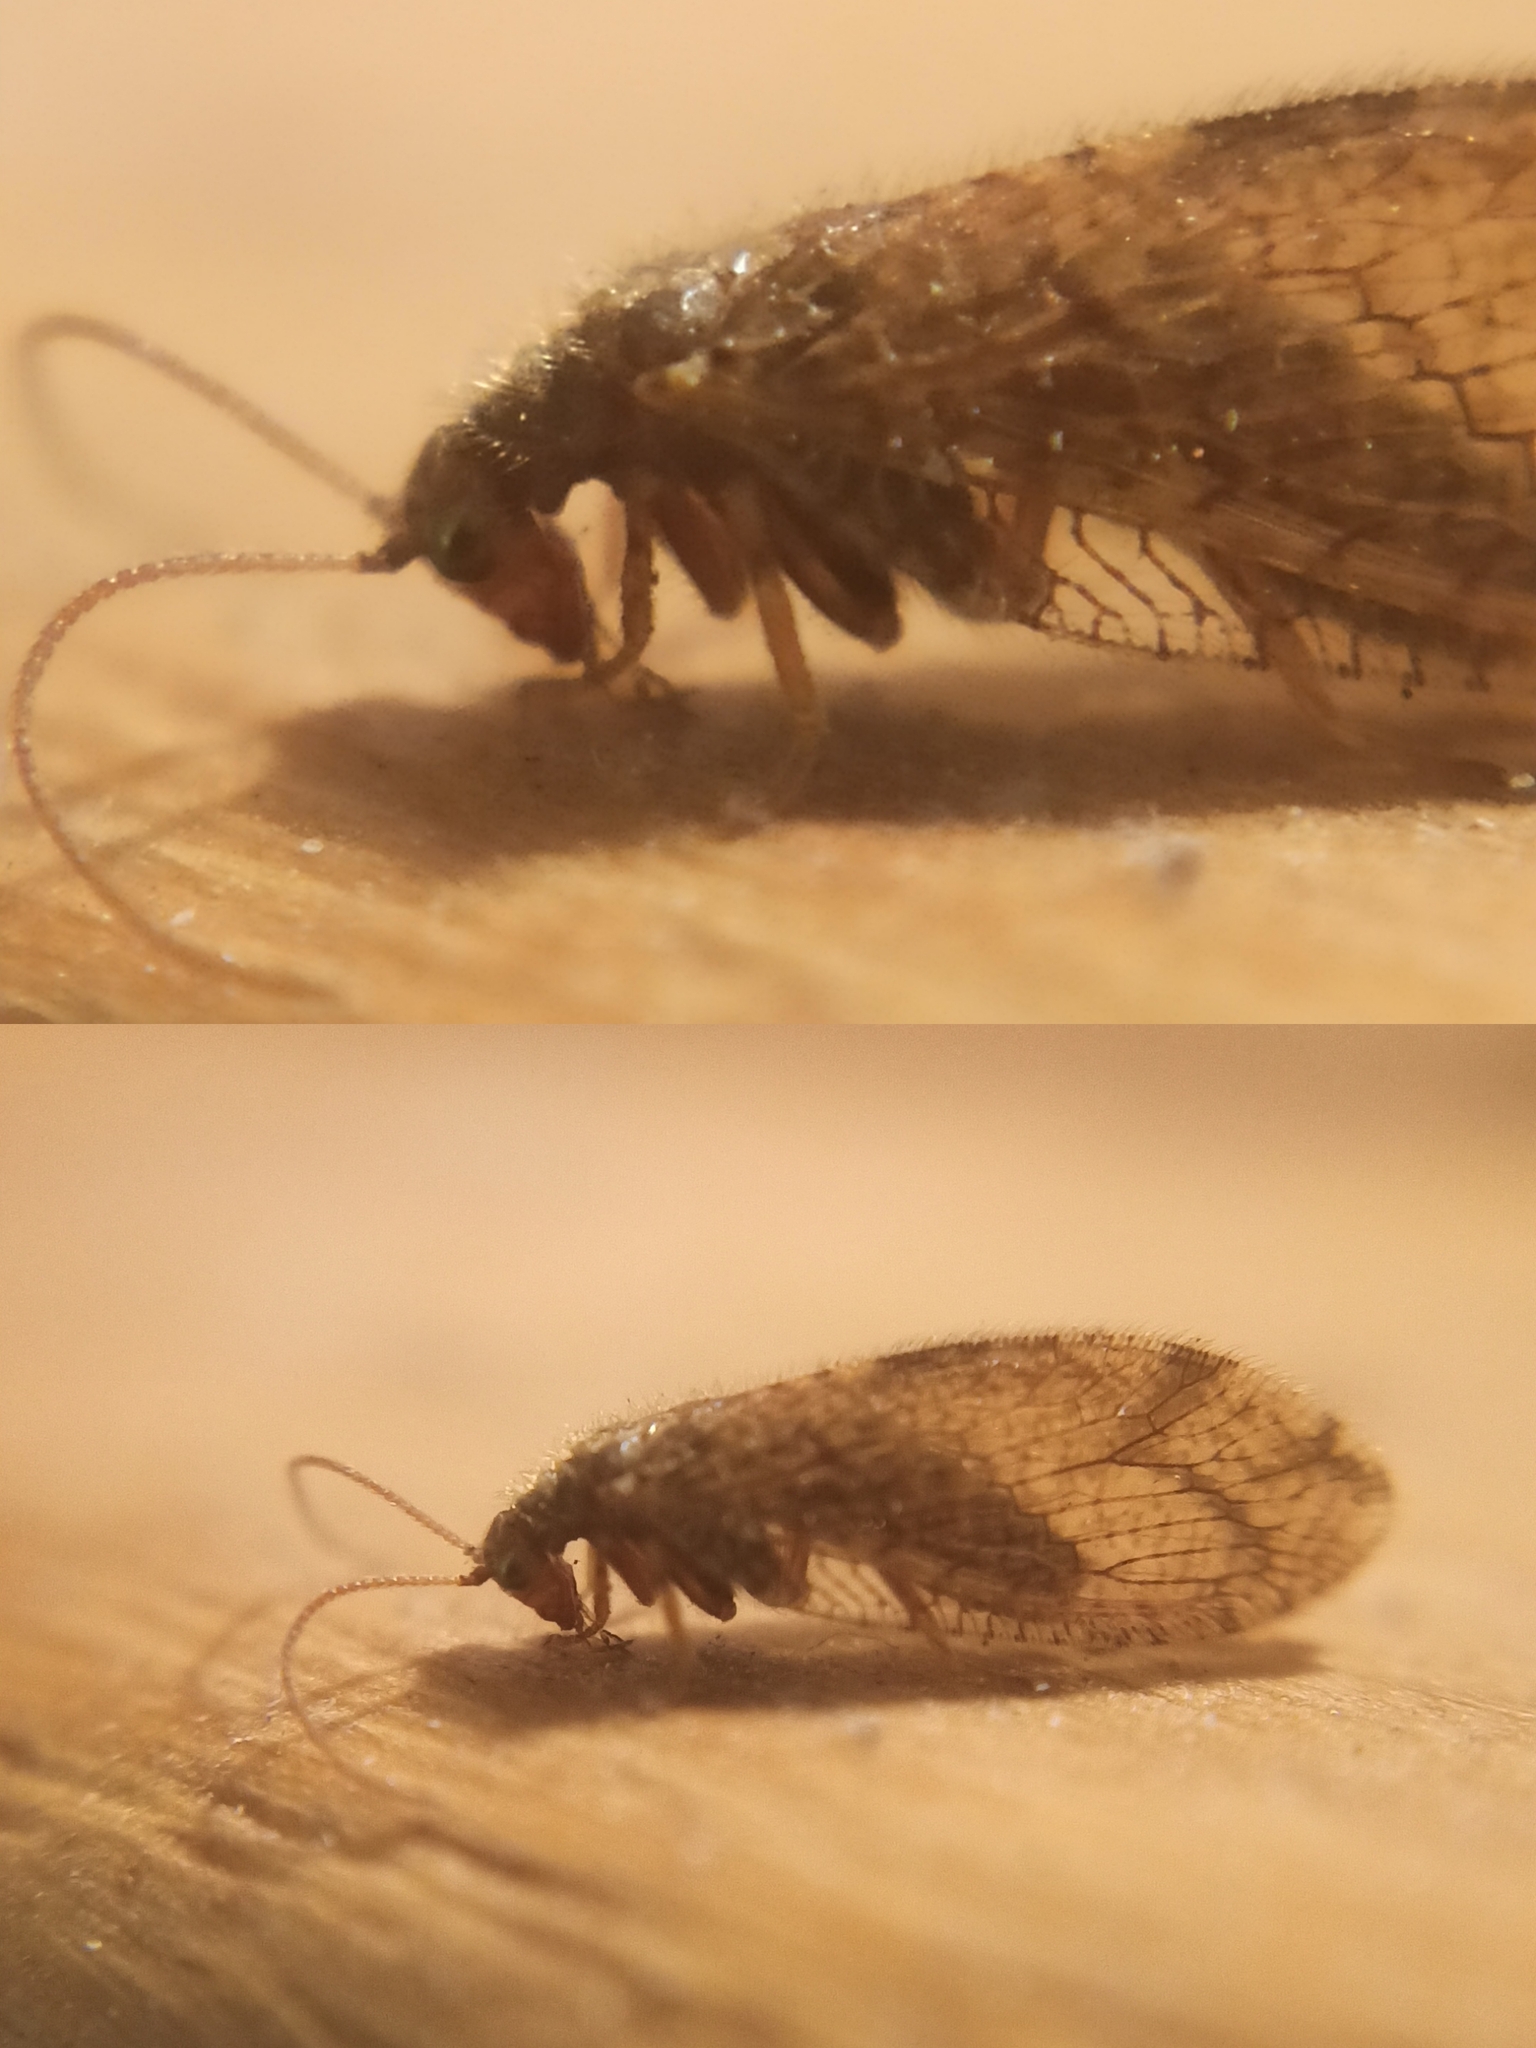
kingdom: Animalia
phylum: Arthropoda
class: Insecta
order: Neuroptera
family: Hemerobiidae
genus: Micromus
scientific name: Micromus angulatus
